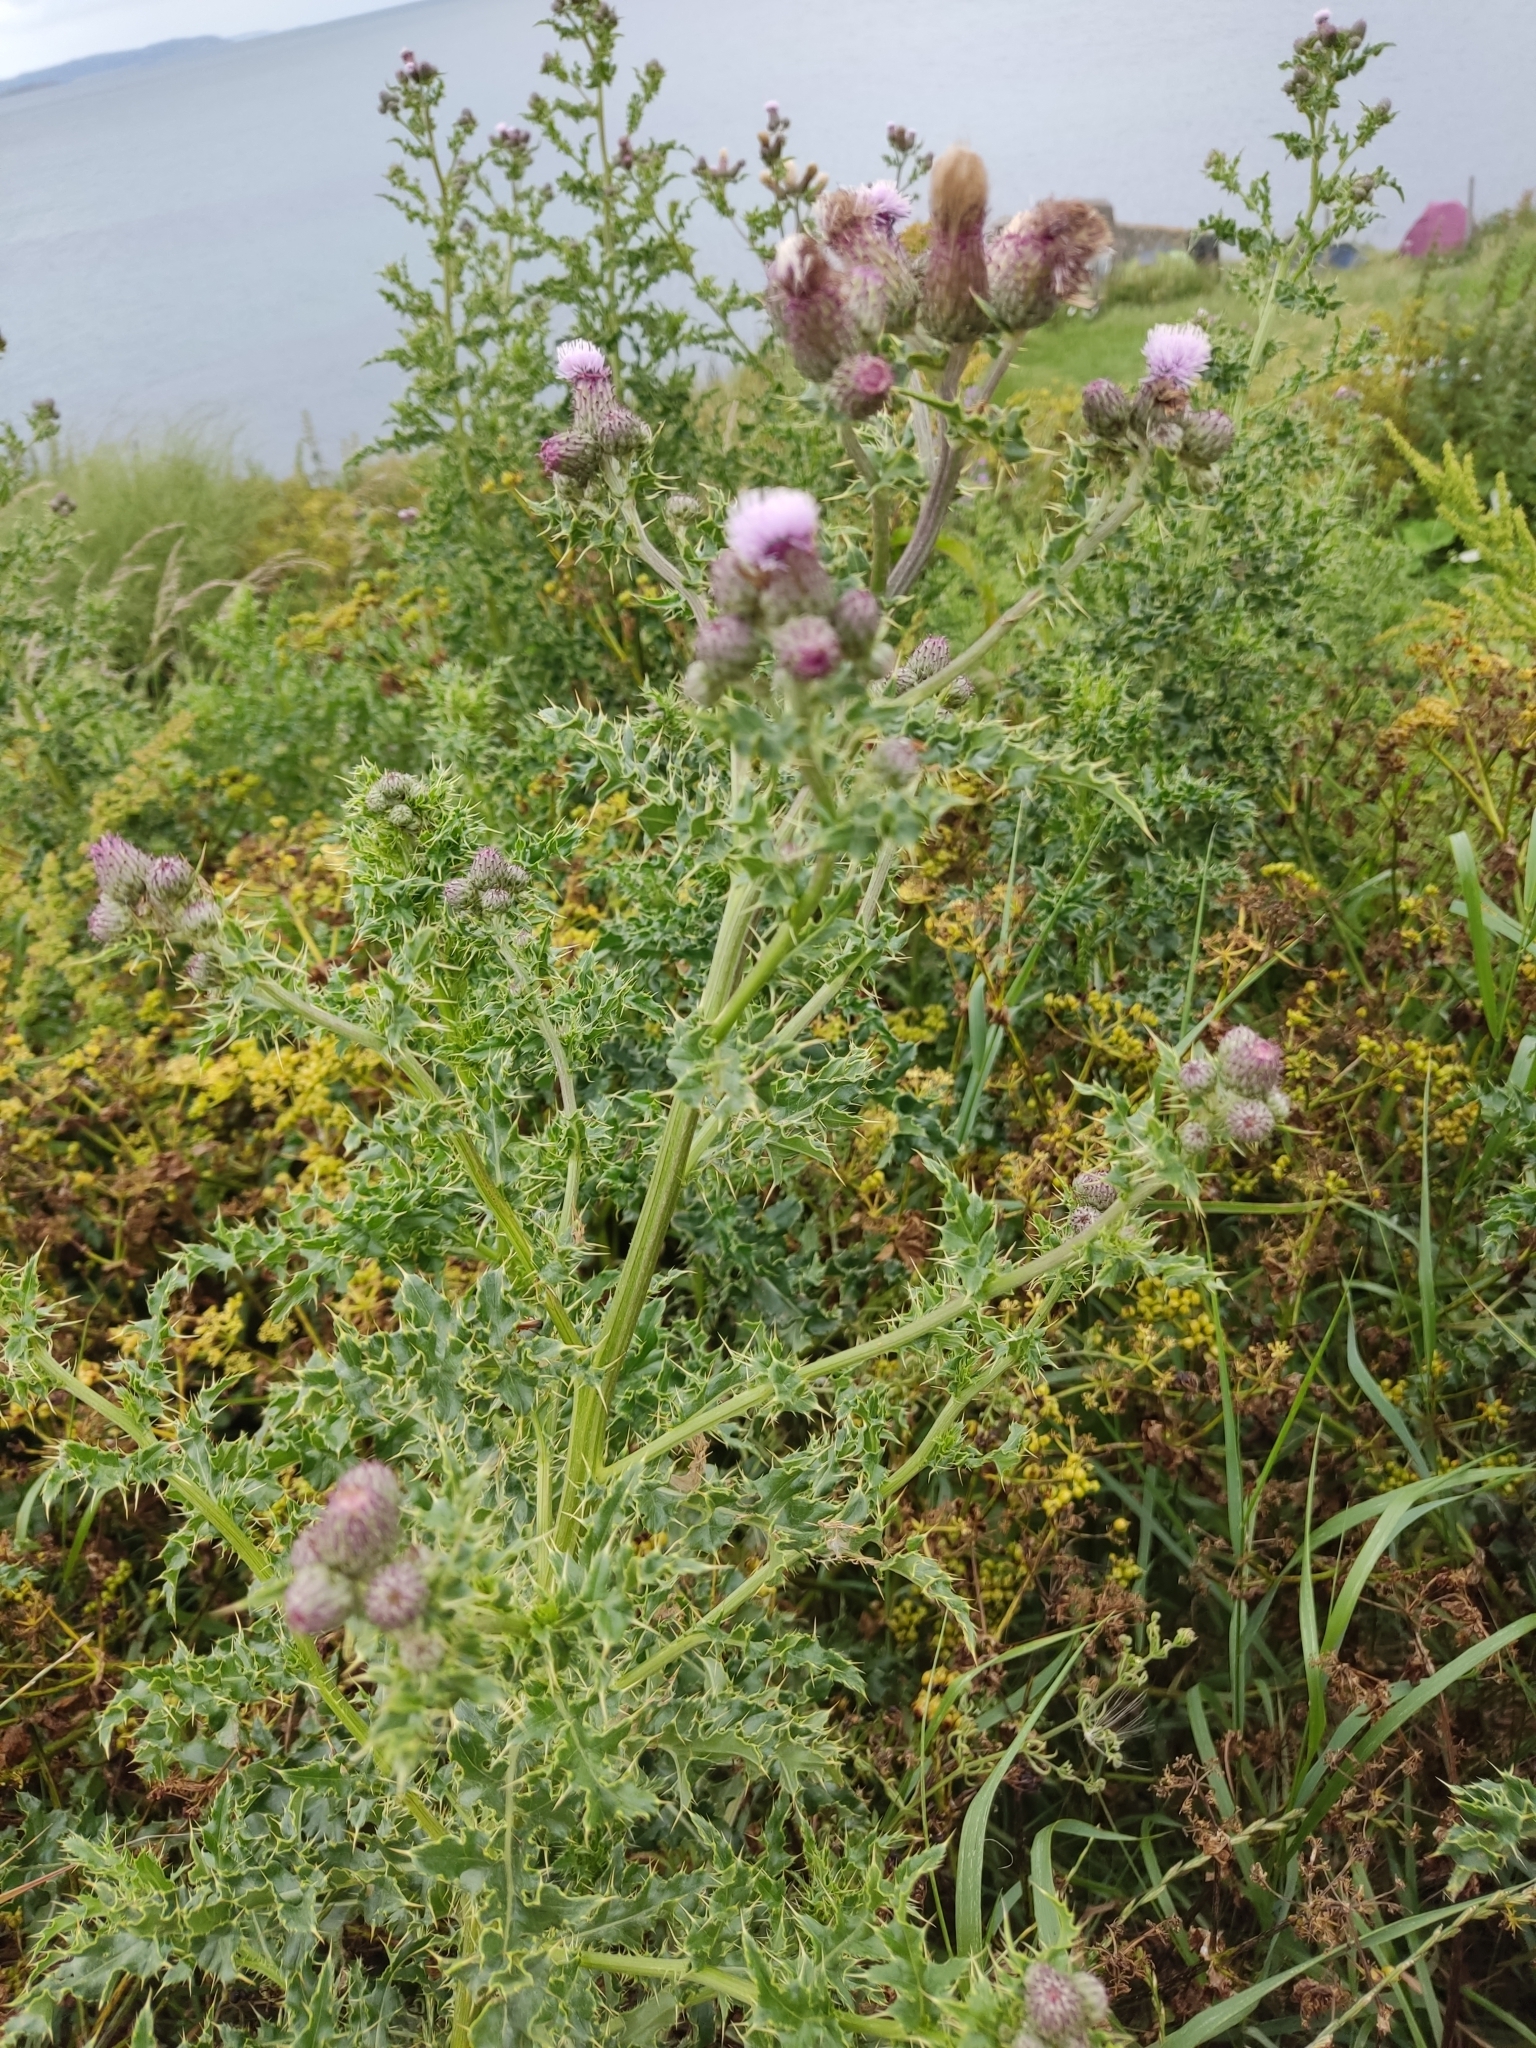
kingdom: Plantae
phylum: Tracheophyta
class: Magnoliopsida
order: Asterales
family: Asteraceae
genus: Cirsium
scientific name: Cirsium arvense
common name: Creeping thistle
